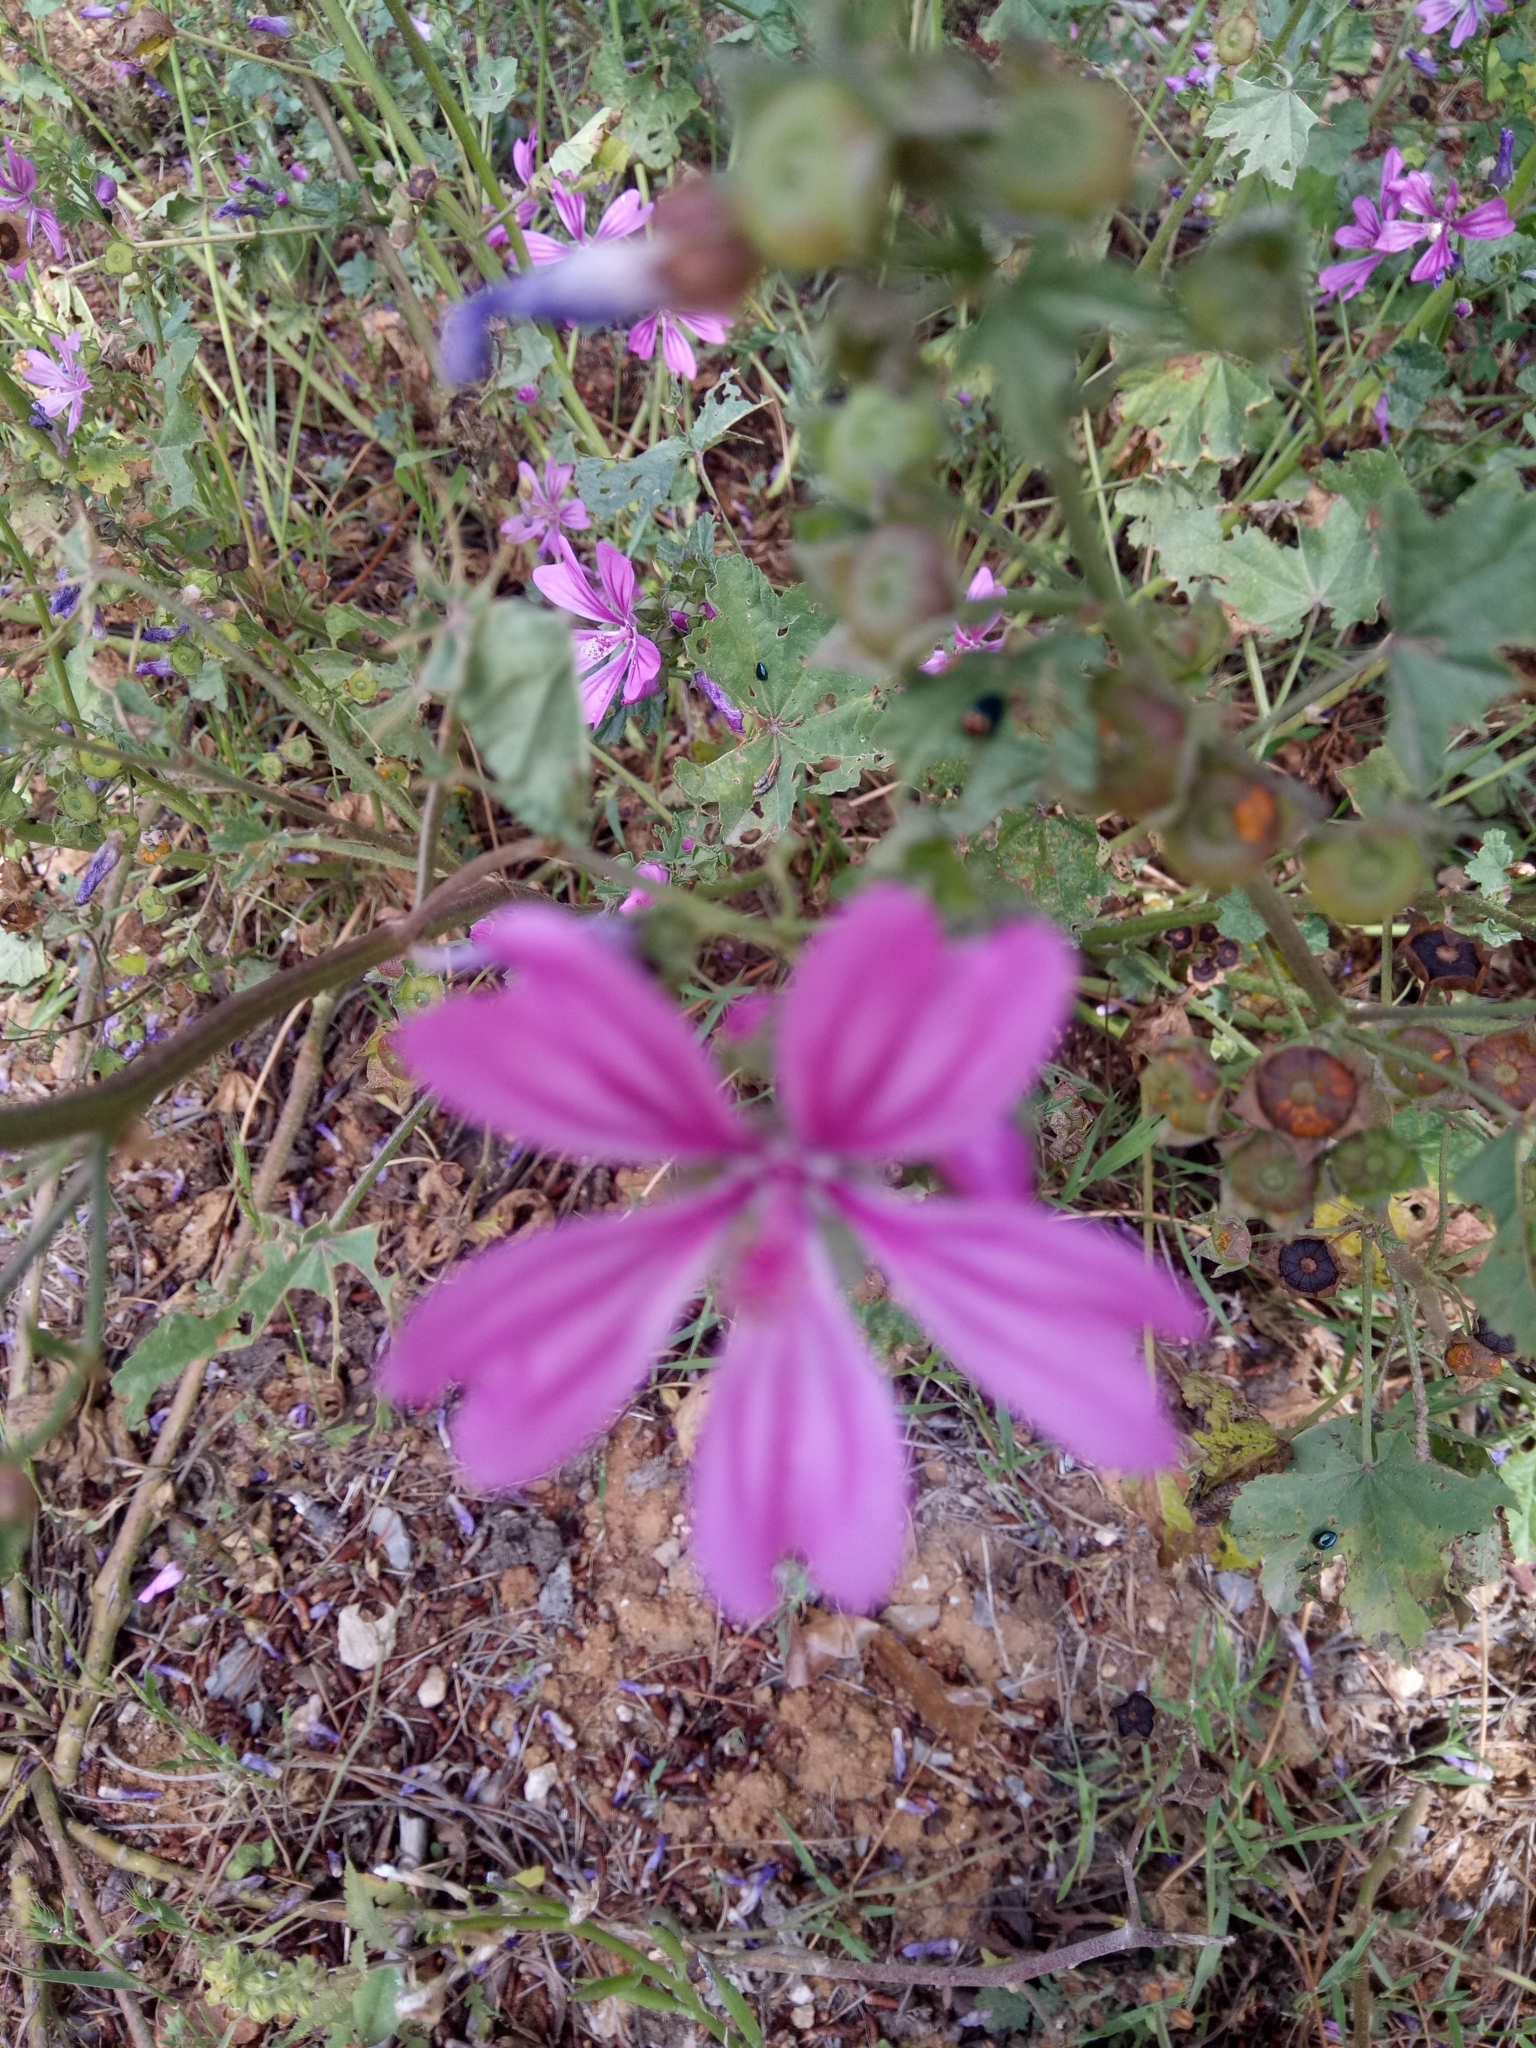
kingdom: Plantae
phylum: Tracheophyta
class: Magnoliopsida
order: Malvales
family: Malvaceae
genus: Malva
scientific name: Malva sylvestris
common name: Common mallow
